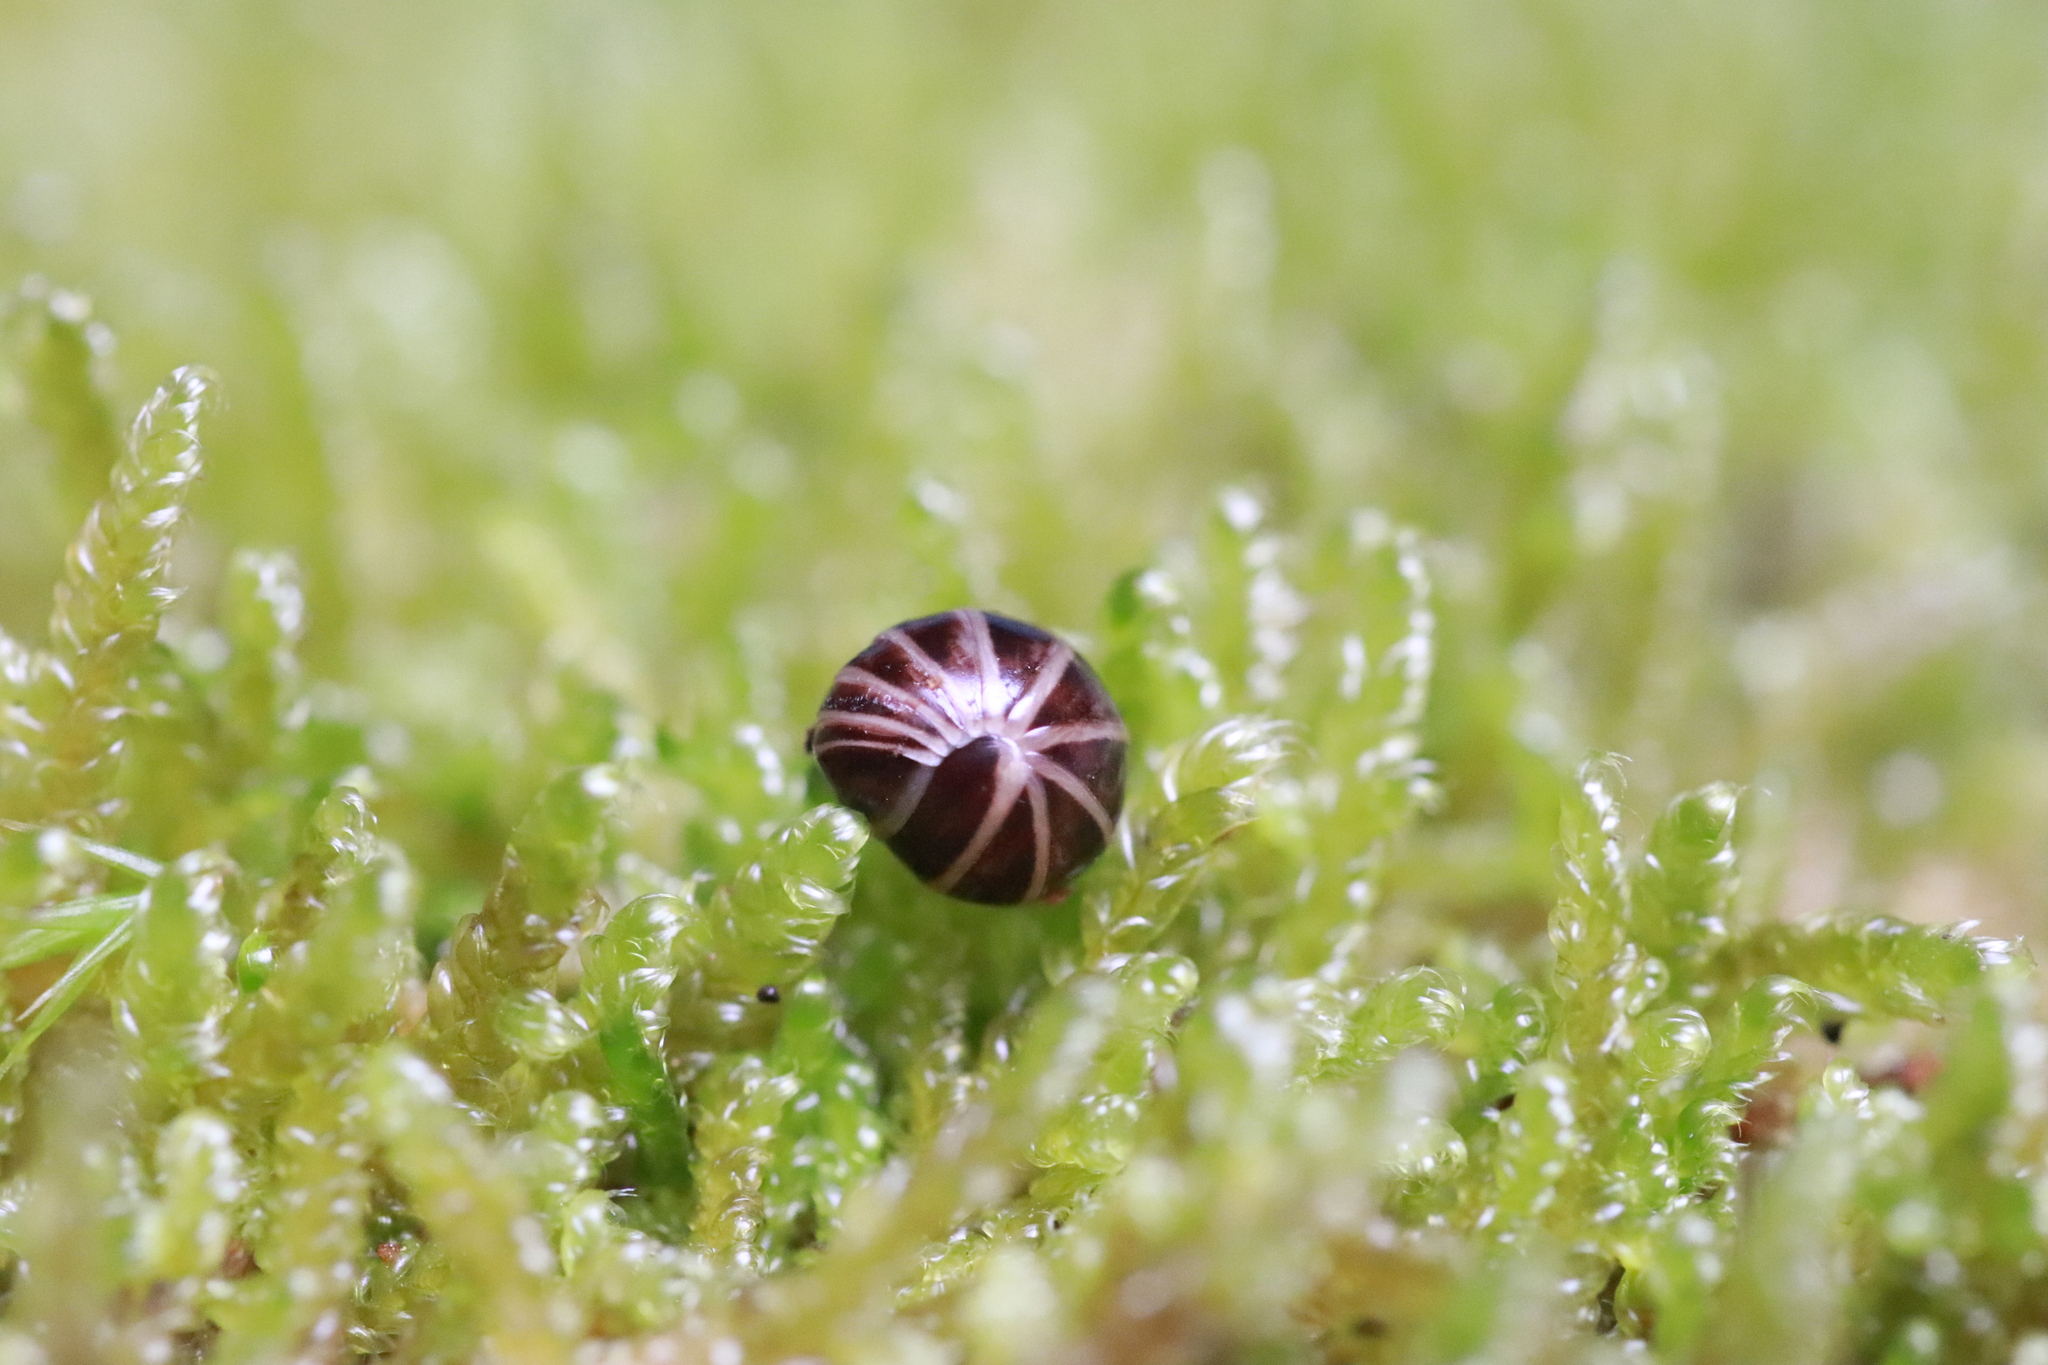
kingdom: Animalia
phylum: Arthropoda
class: Diplopoda
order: Glomerida
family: Glomeridae
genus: Glomeris
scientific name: Glomeris marginata
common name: Bordered pill millipede
